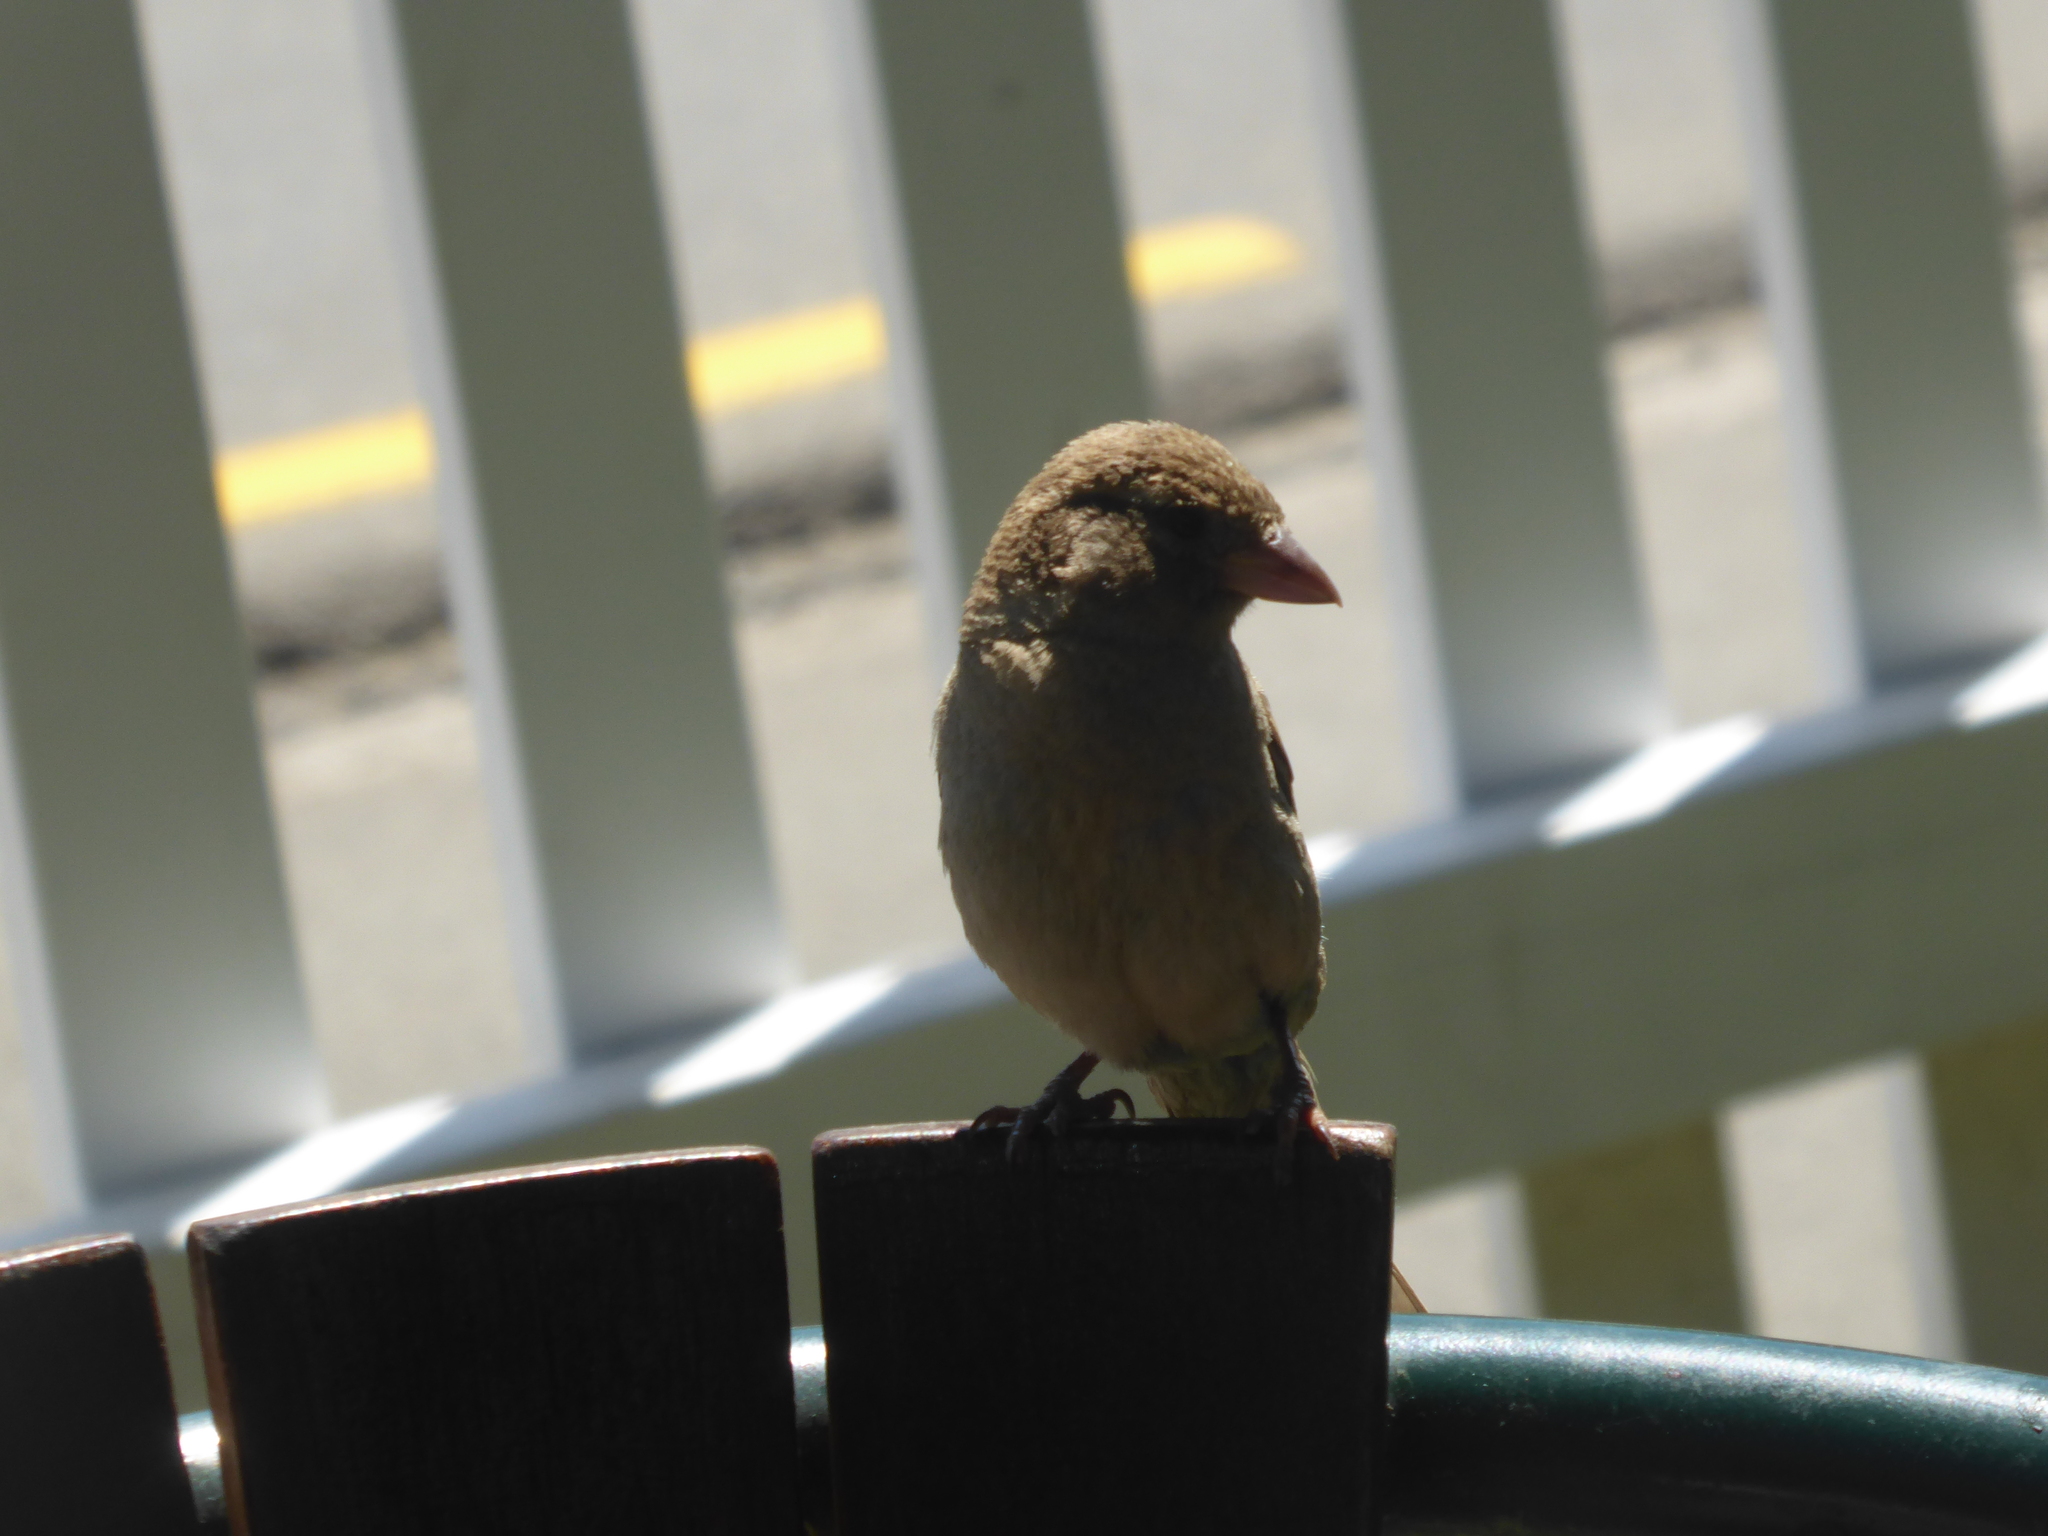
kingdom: Animalia
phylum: Chordata
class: Aves
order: Passeriformes
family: Passeridae
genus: Passer
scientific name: Passer domesticus
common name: House sparrow
